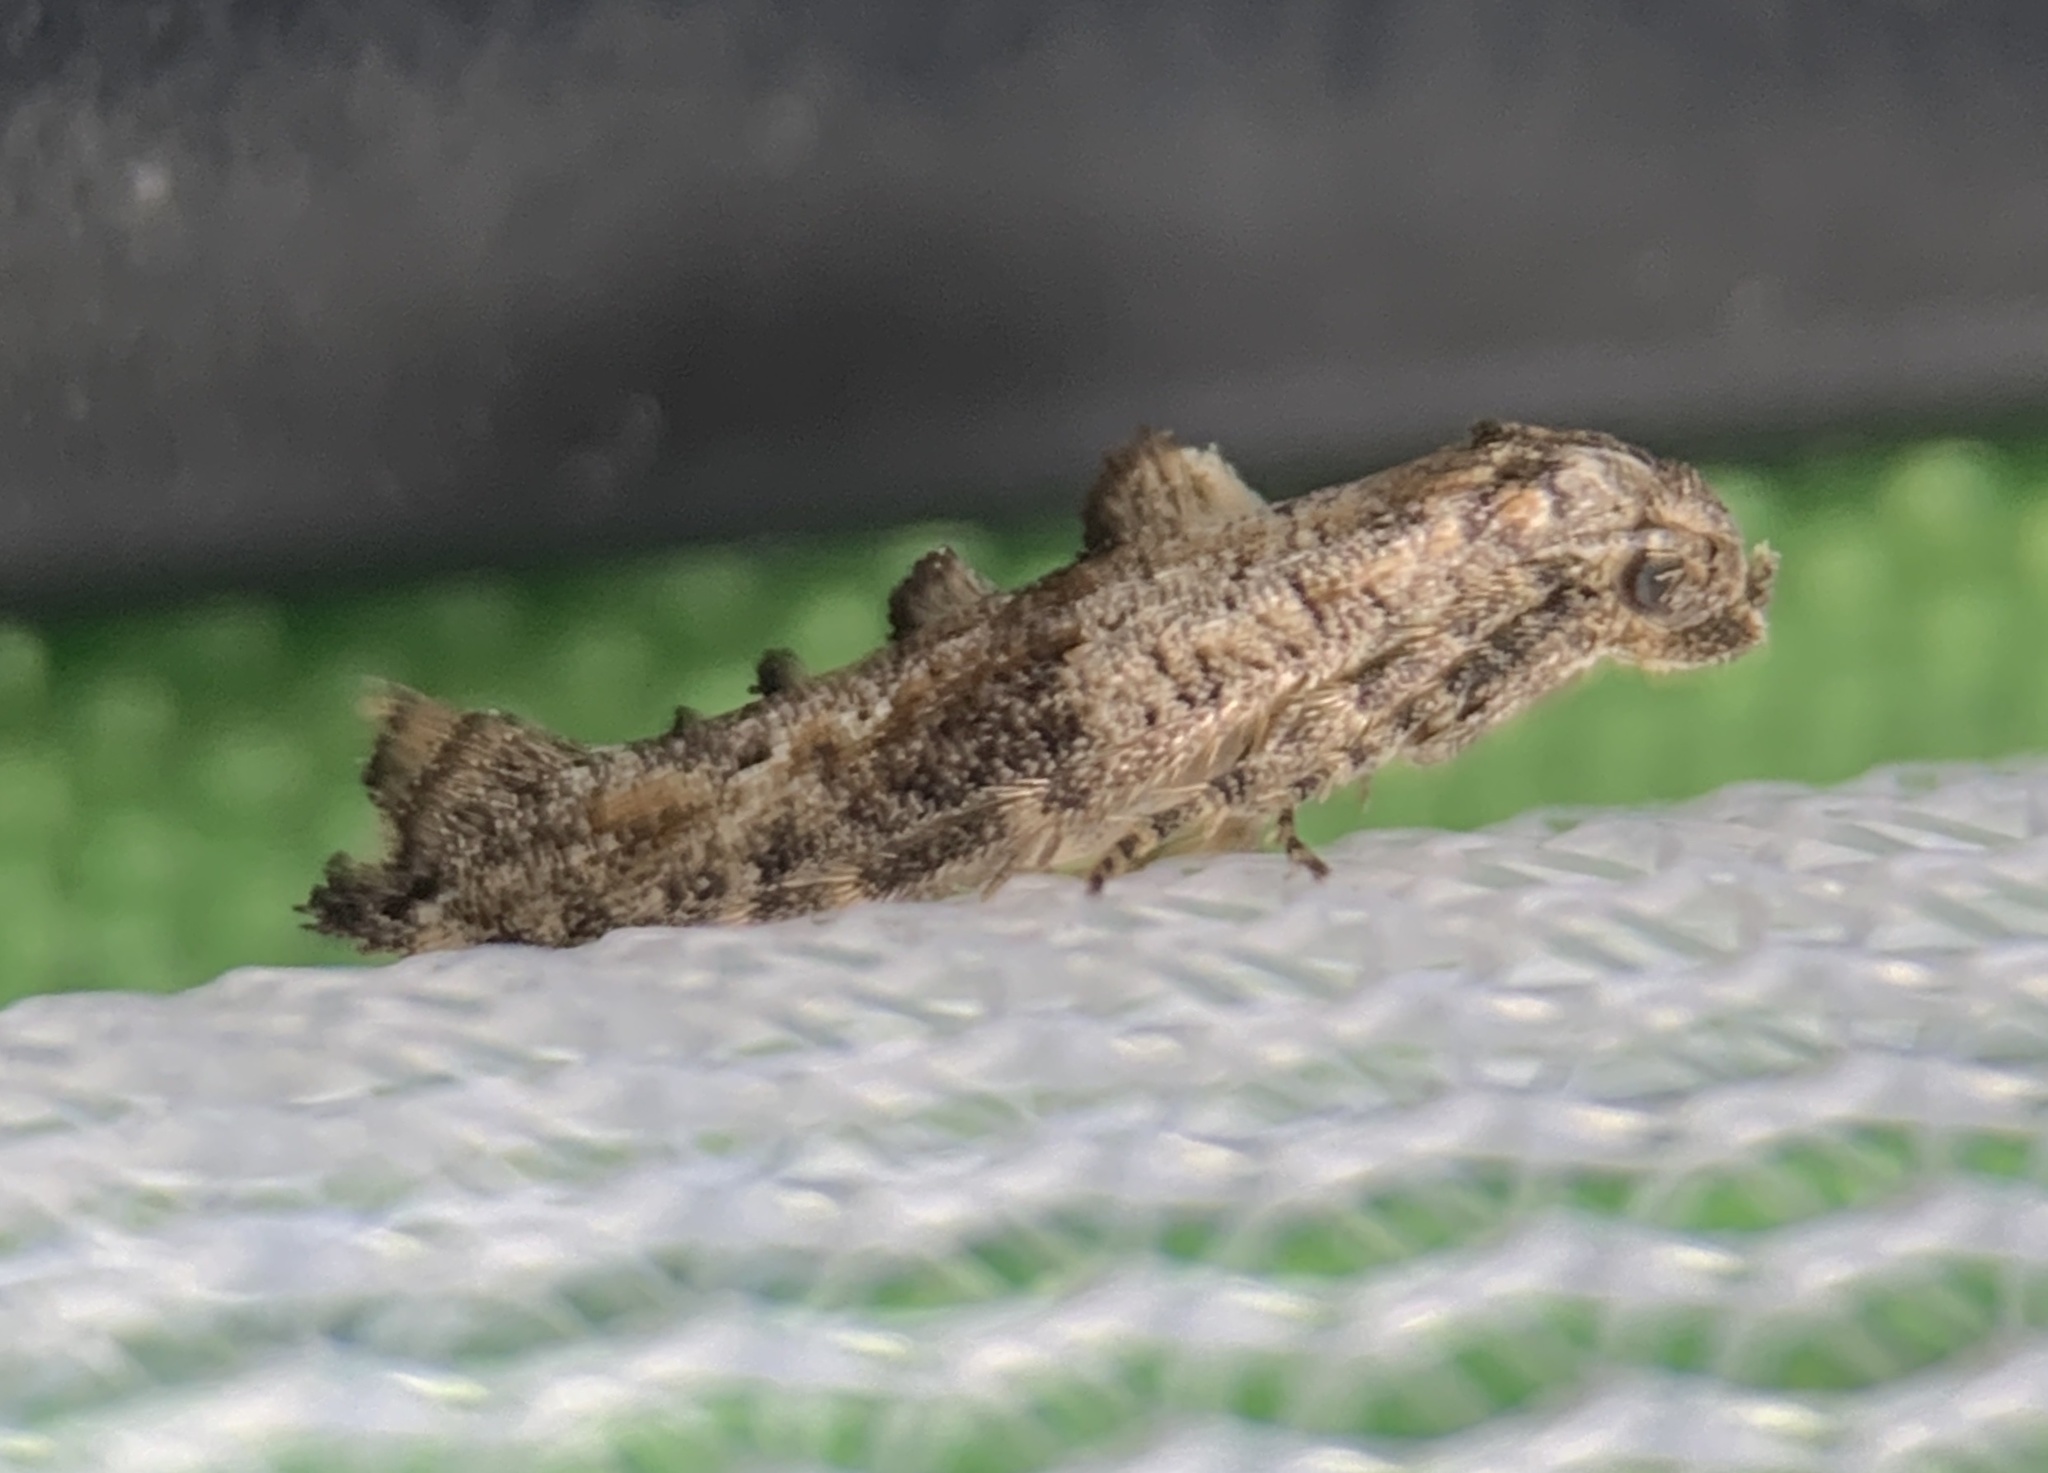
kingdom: Animalia
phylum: Arthropoda
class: Insecta
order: Lepidoptera
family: Epermeniidae
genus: Epermenia
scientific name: Epermenia albapunctella
